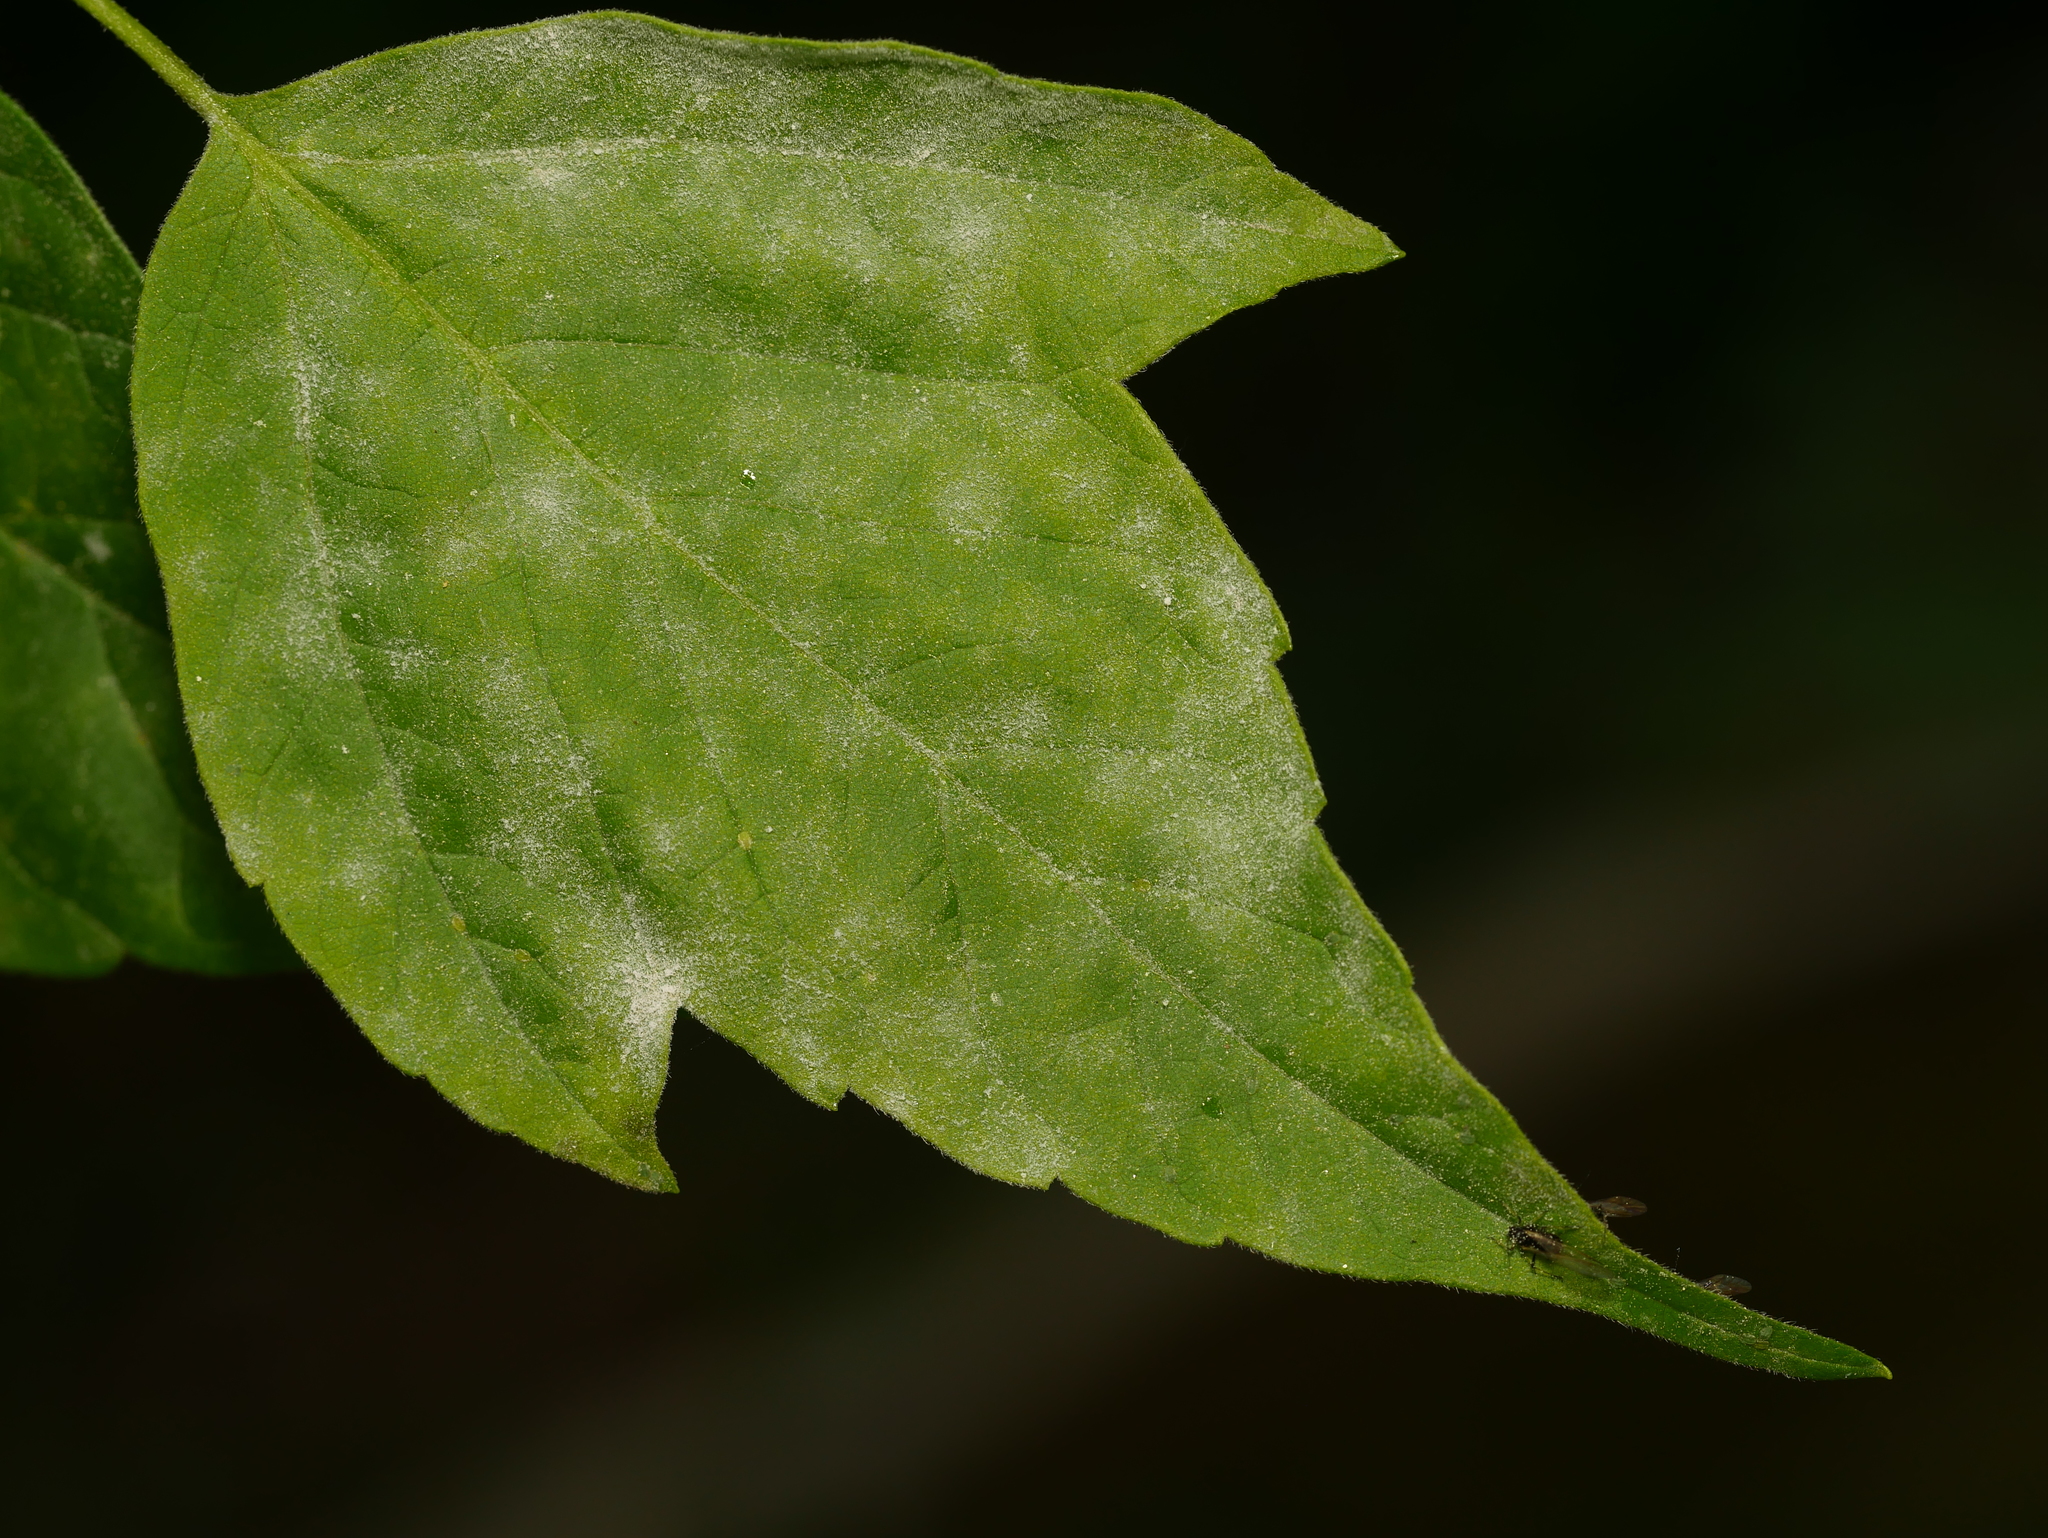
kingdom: Fungi
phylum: Ascomycota
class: Leotiomycetes
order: Helotiales
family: Erysiphaceae
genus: Sawadaea
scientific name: Sawadaea bicornis
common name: Maple mildew
